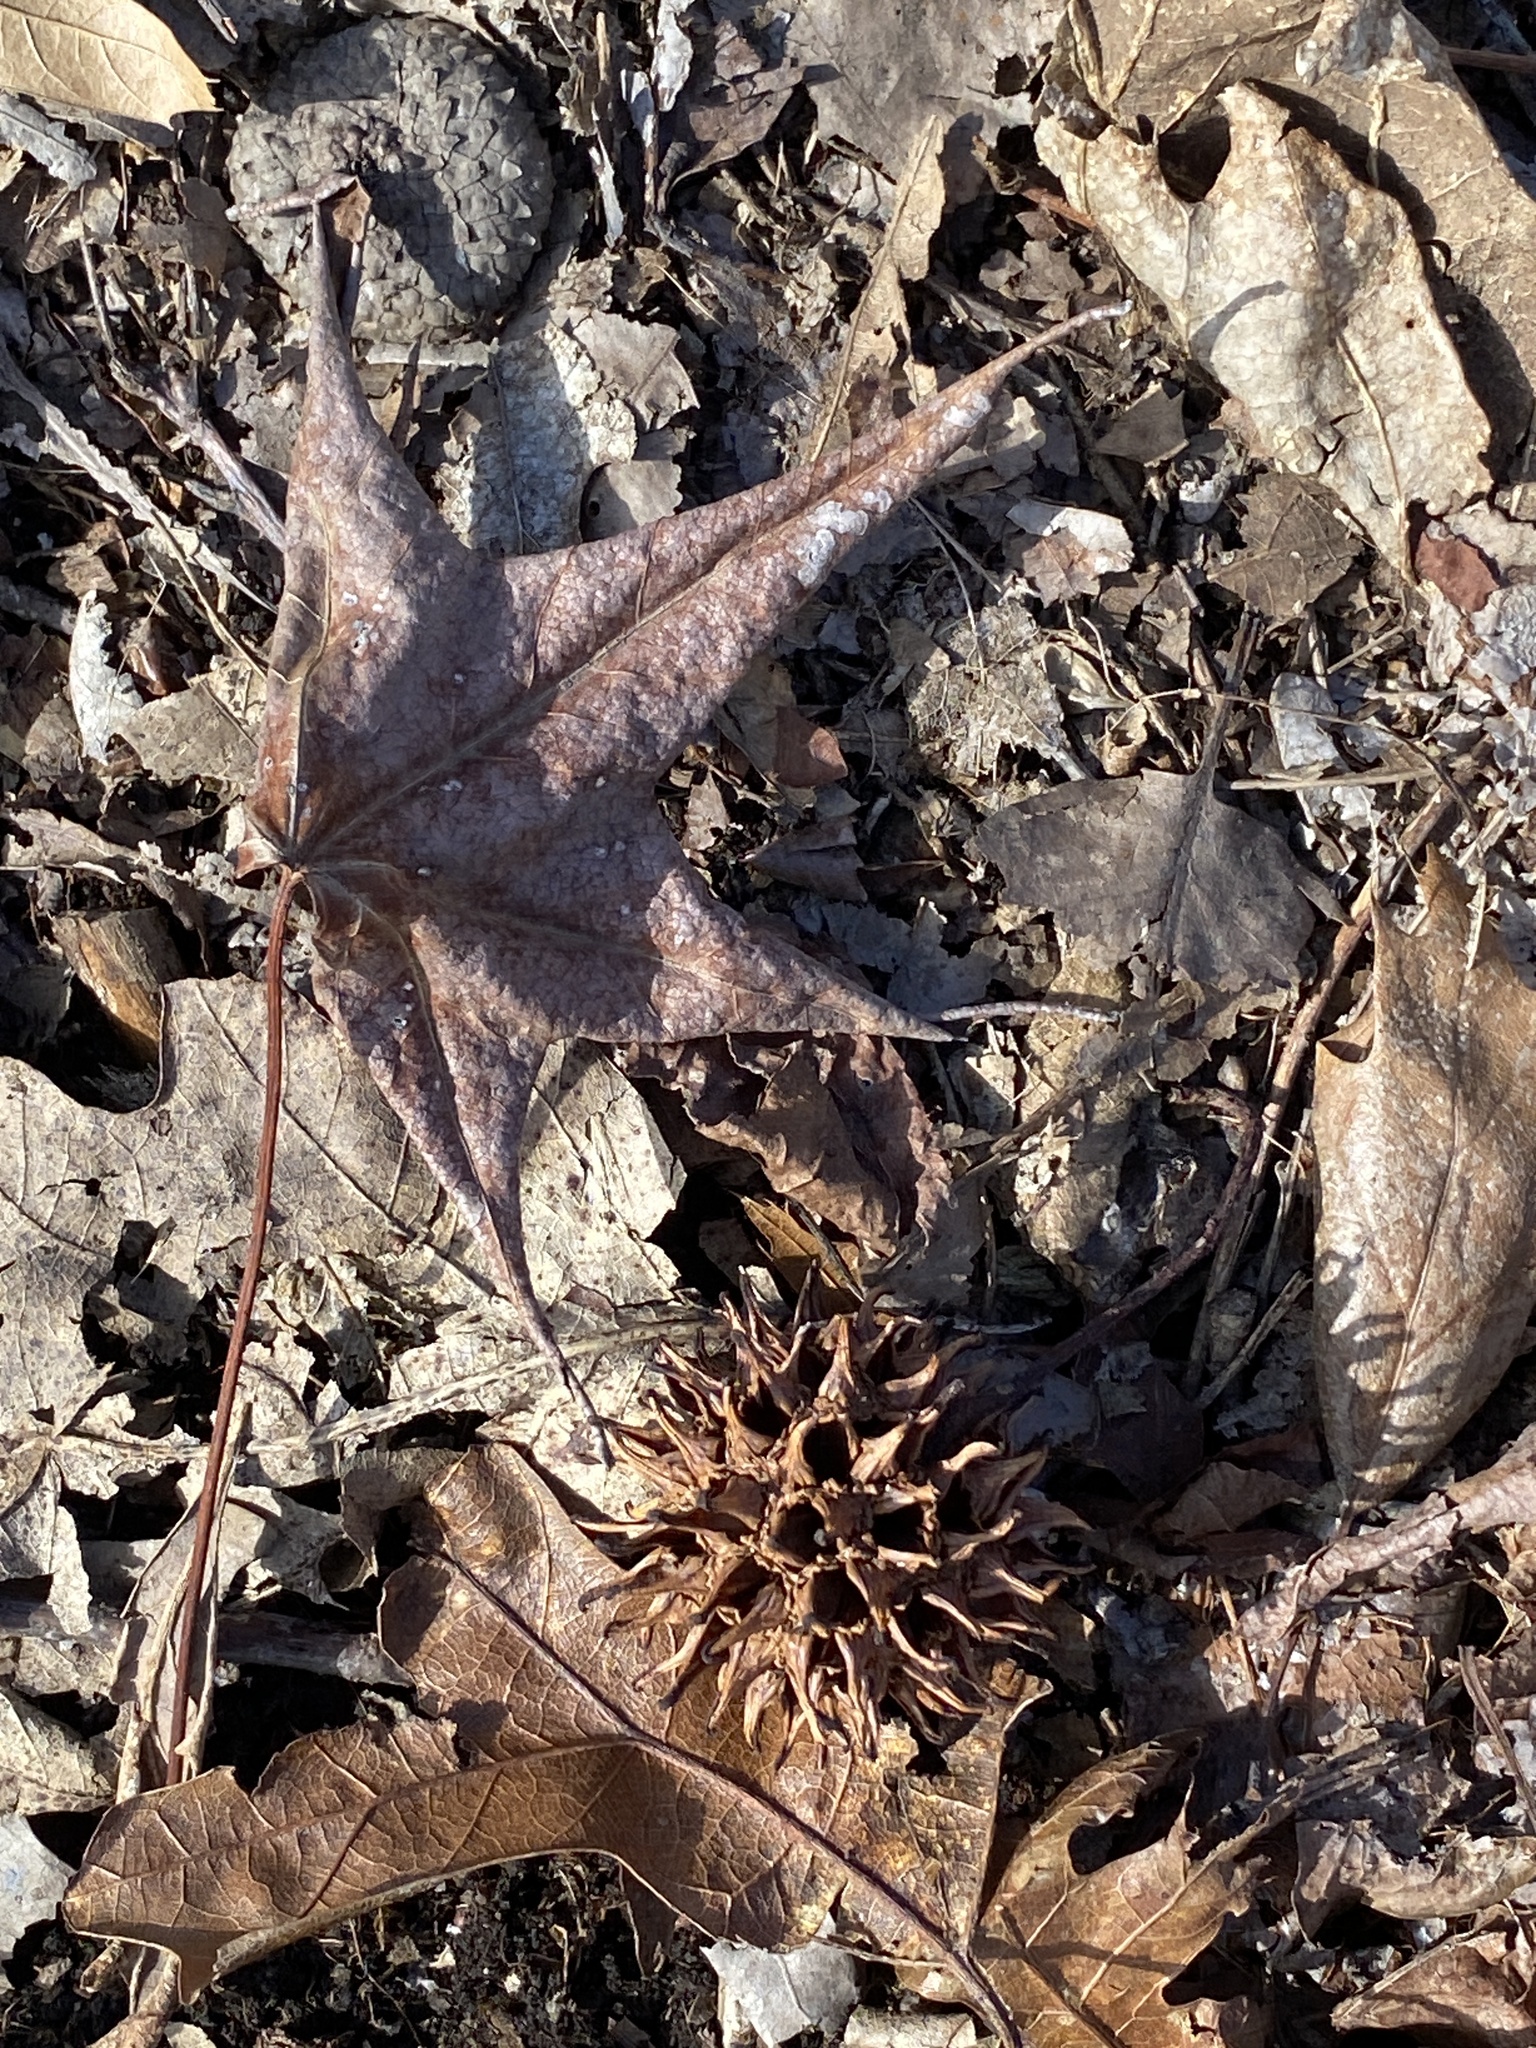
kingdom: Plantae
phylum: Tracheophyta
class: Magnoliopsida
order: Saxifragales
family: Altingiaceae
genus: Liquidambar
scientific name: Liquidambar styraciflua
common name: Sweet gum
